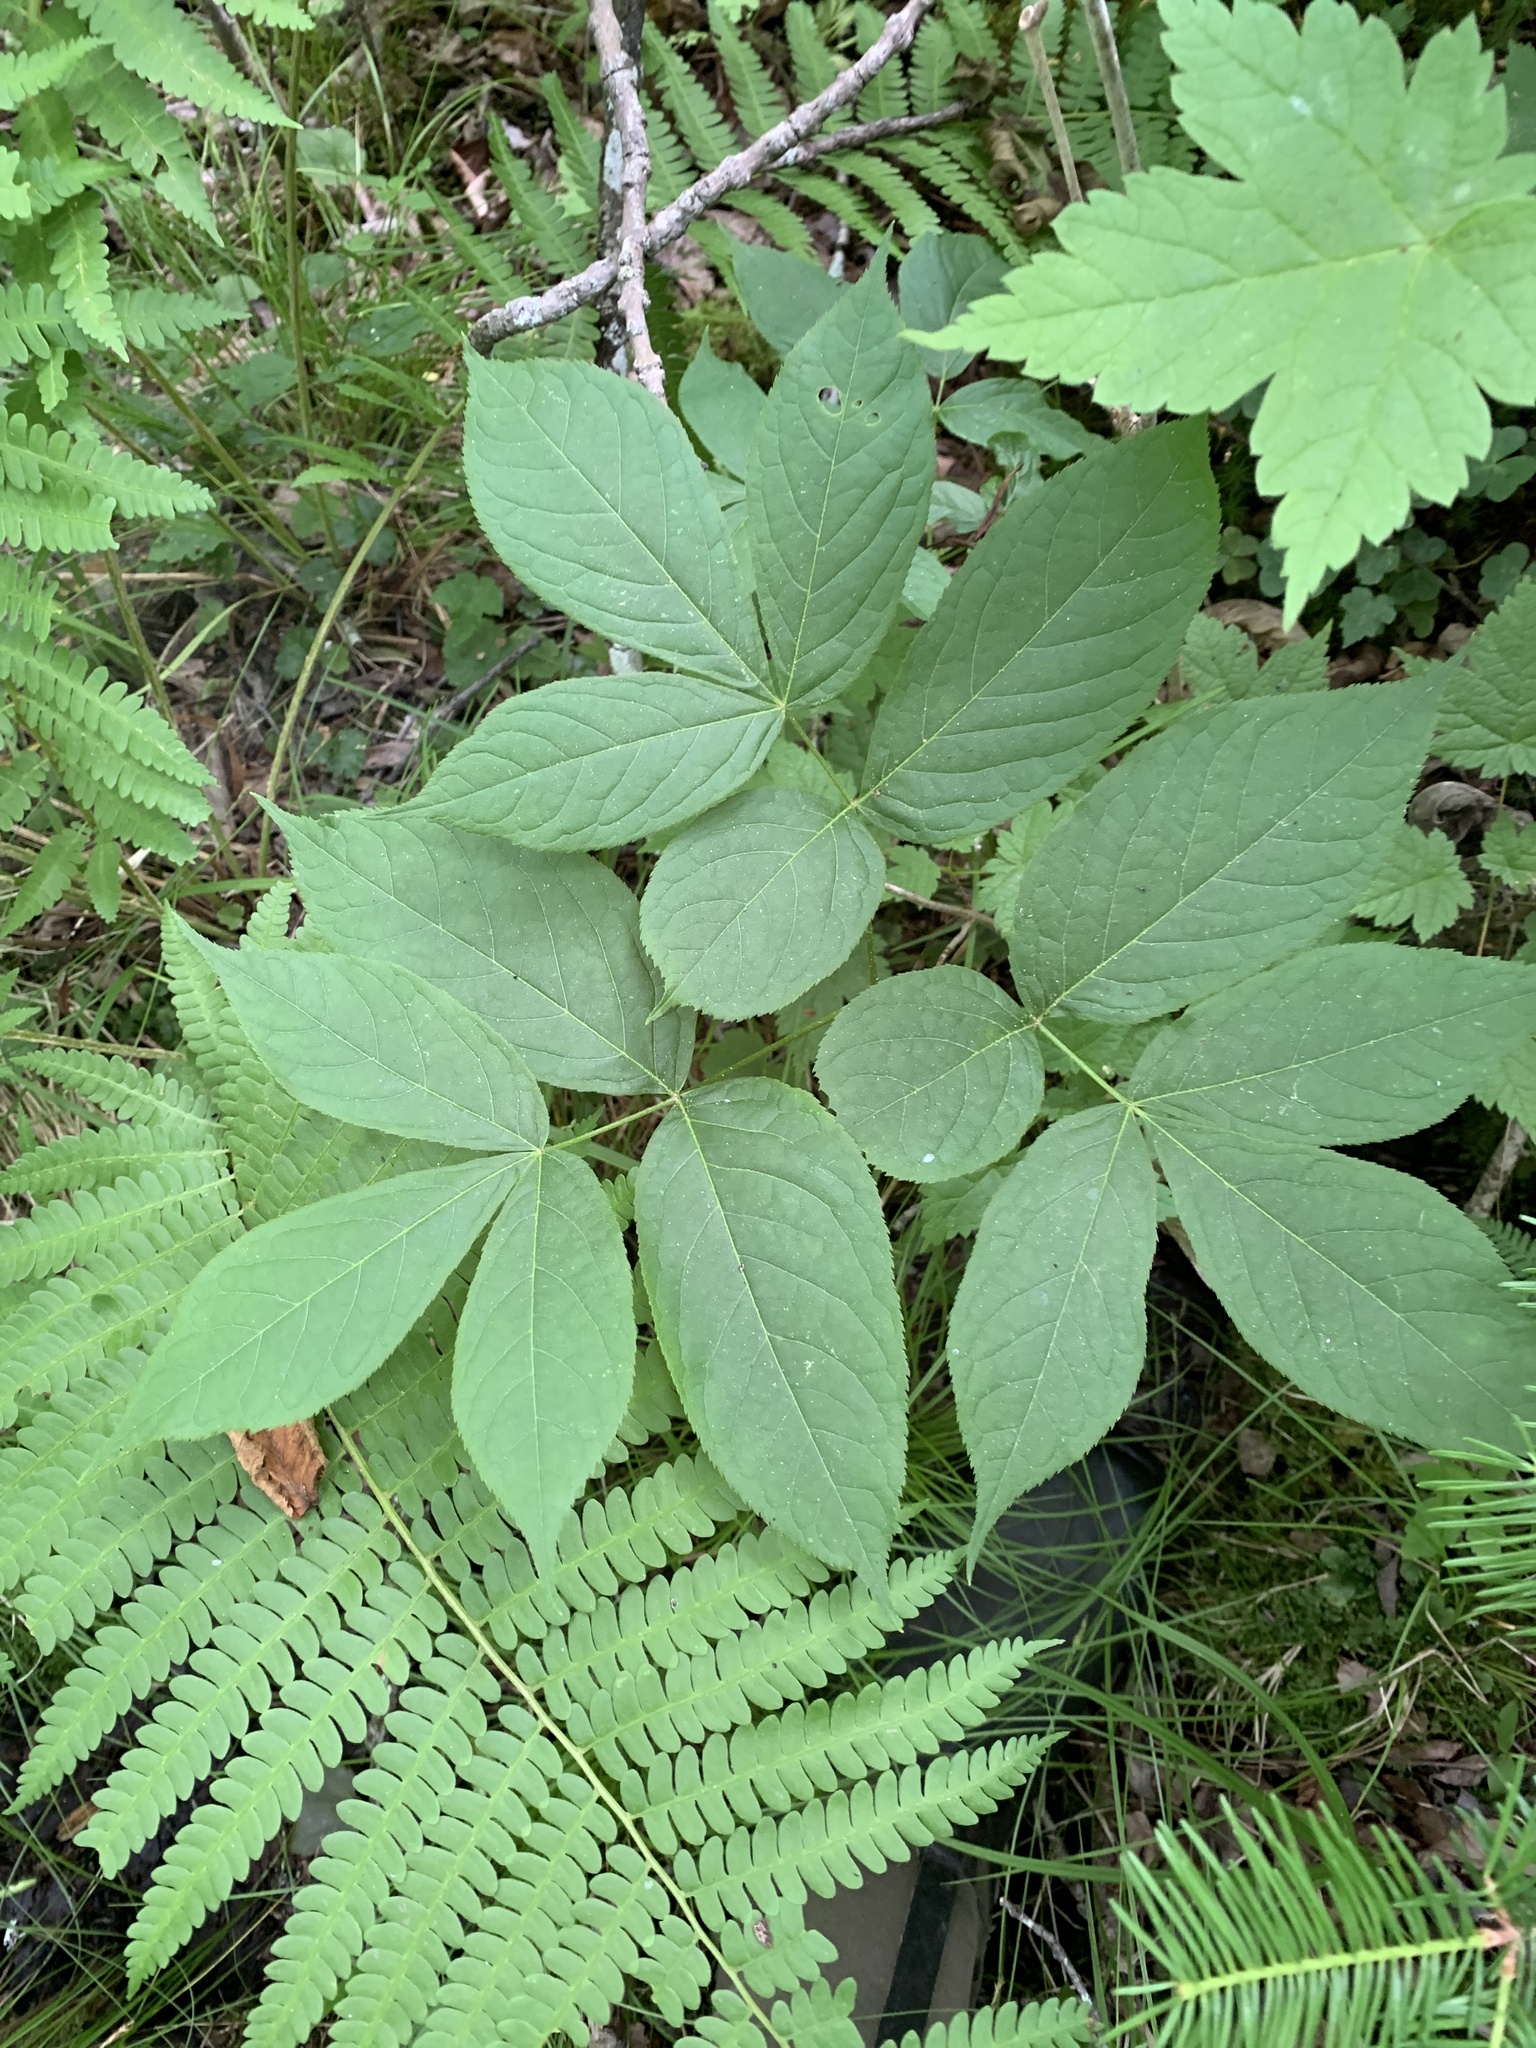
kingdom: Plantae
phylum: Tracheophyta
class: Magnoliopsida
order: Apiales
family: Araliaceae
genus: Aralia
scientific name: Aralia nudicaulis
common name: Wild sarsaparilla
